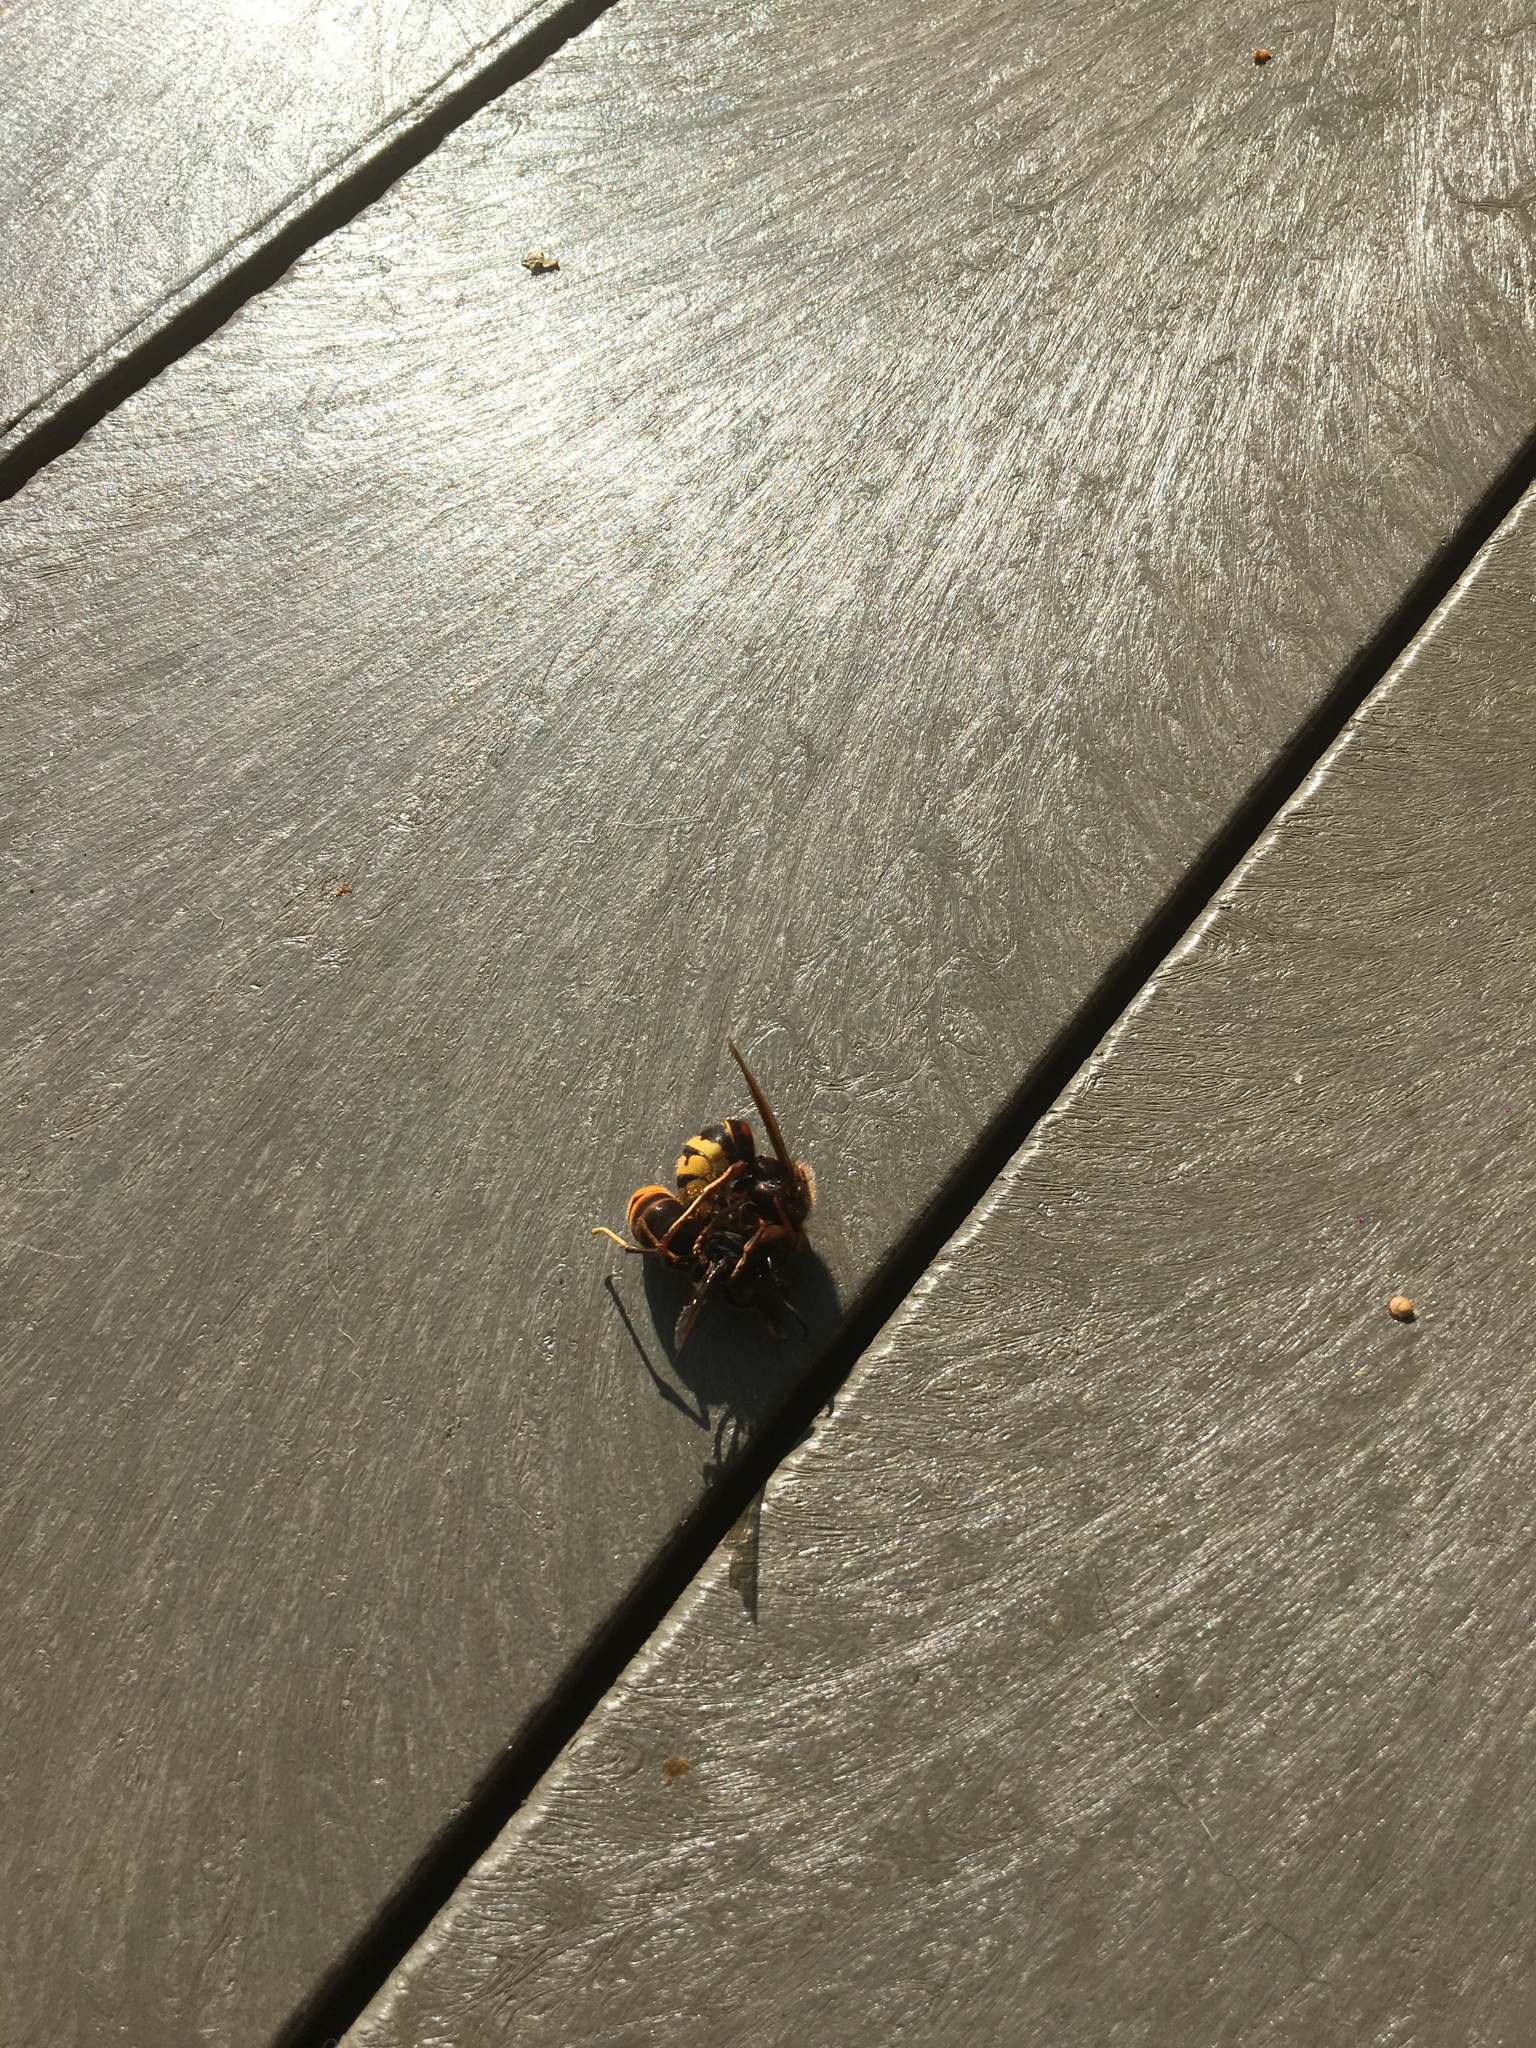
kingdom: Animalia
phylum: Arthropoda
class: Insecta
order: Hymenoptera
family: Vespidae
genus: Vespa
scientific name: Vespa velutina
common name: Asian hornet
